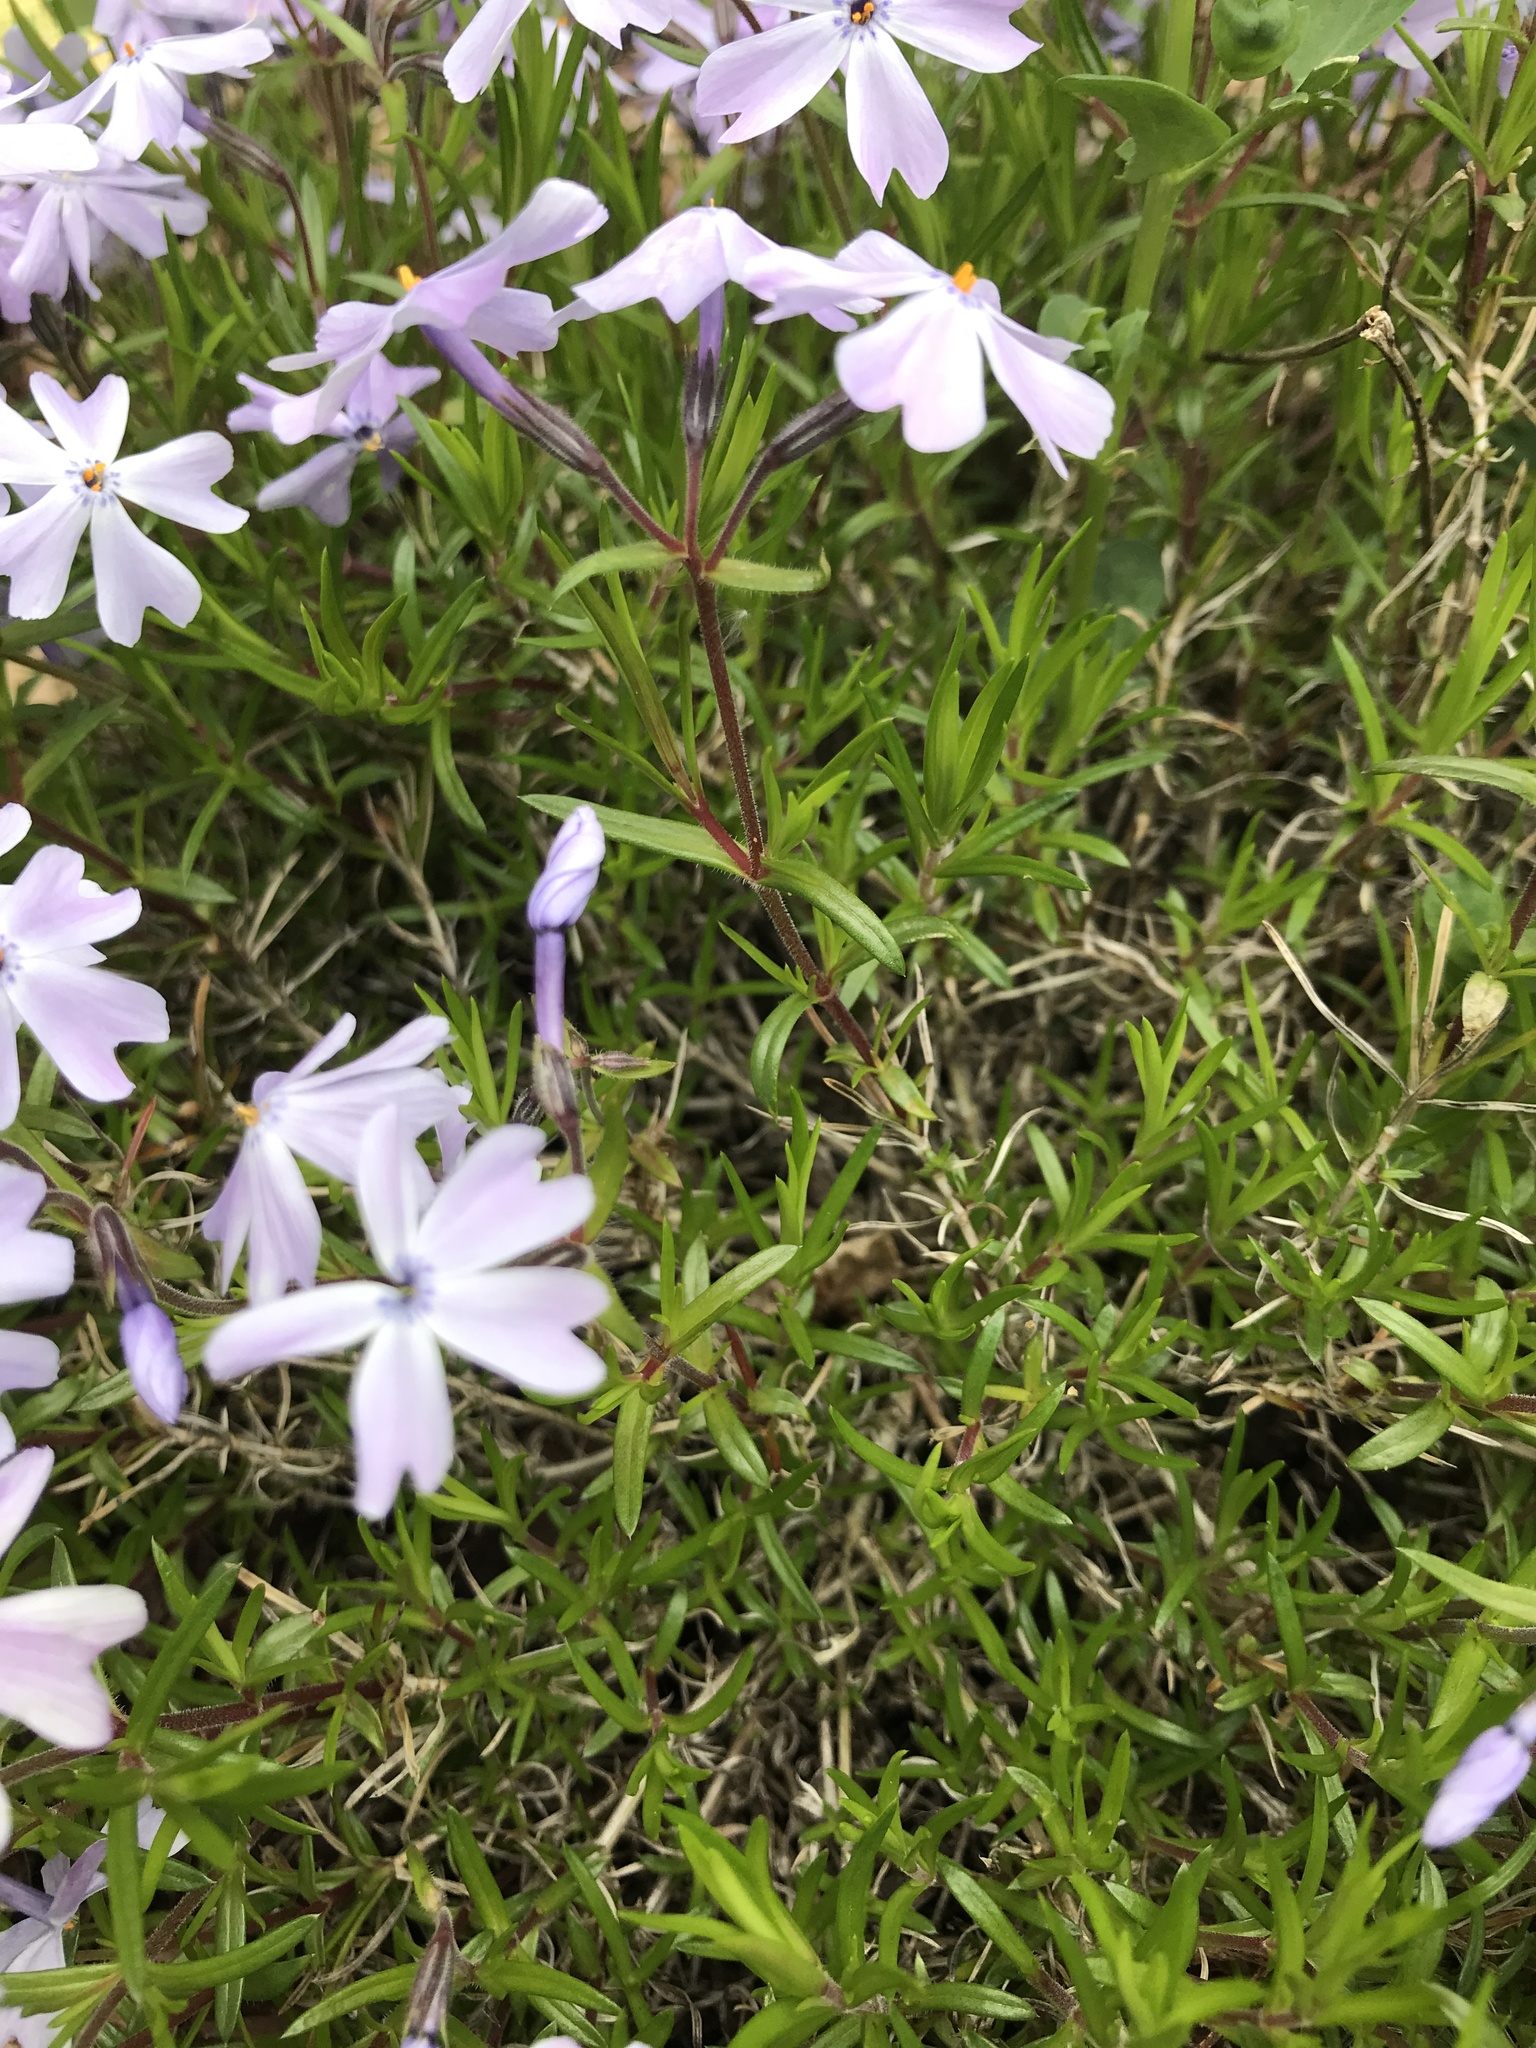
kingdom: Plantae
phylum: Tracheophyta
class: Magnoliopsida
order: Ericales
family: Polemoniaceae
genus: Phlox
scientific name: Phlox subulata
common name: Moss phlox
